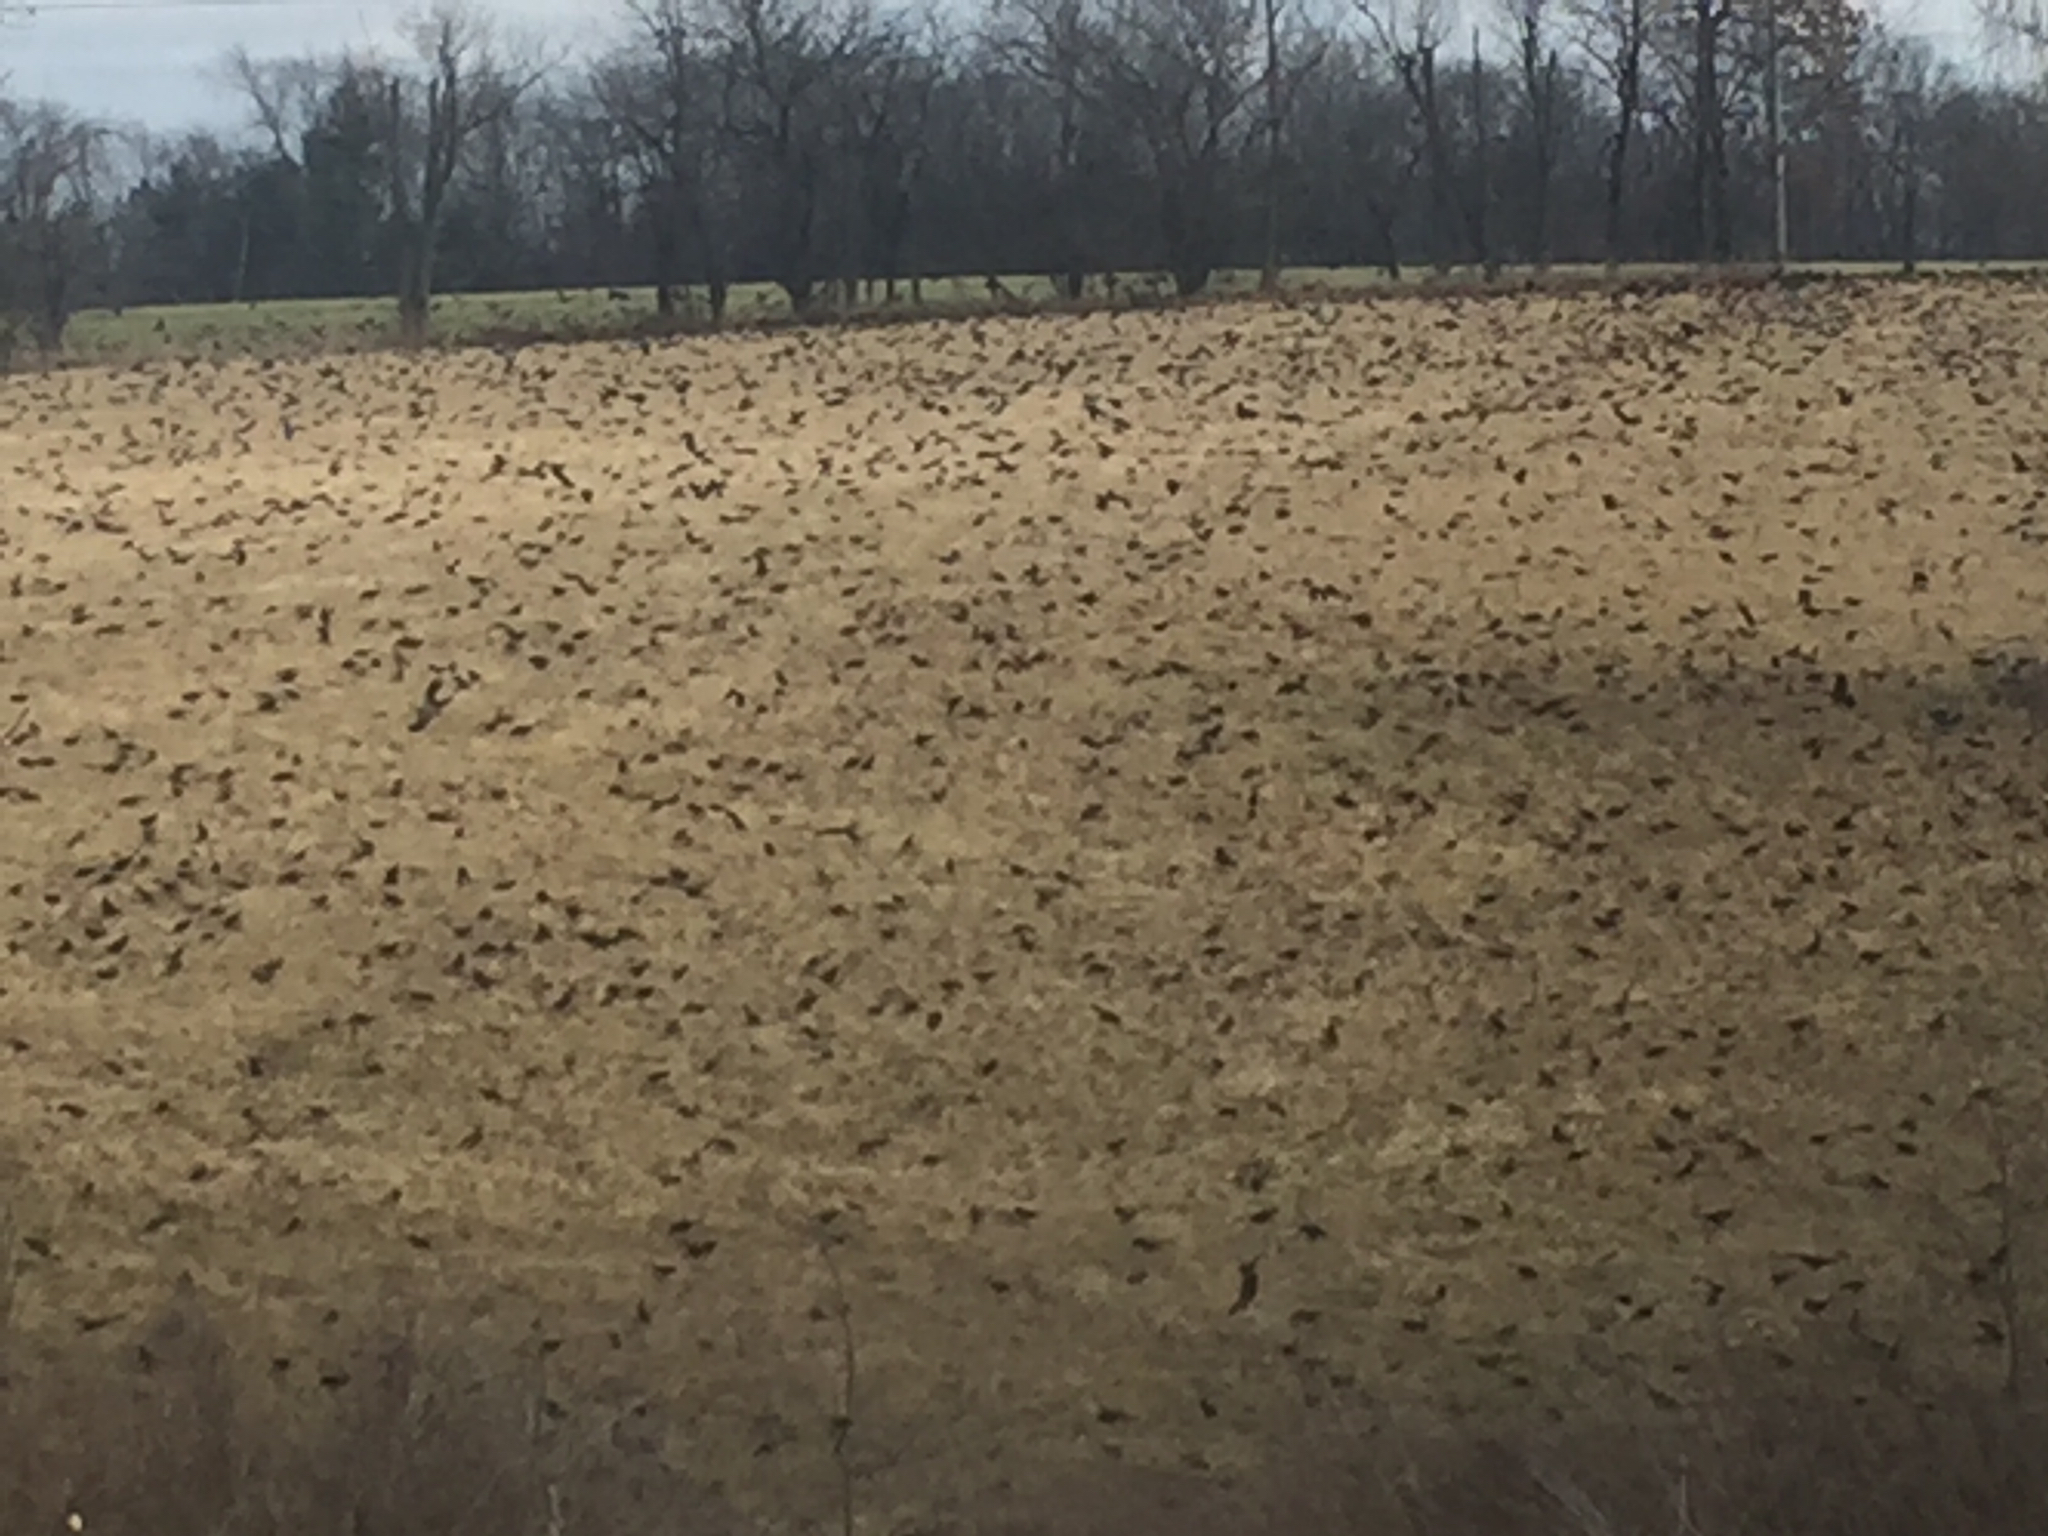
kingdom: Animalia
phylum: Chordata
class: Aves
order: Passeriformes
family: Icteridae
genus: Quiscalus
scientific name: Quiscalus quiscula
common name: Common grackle
